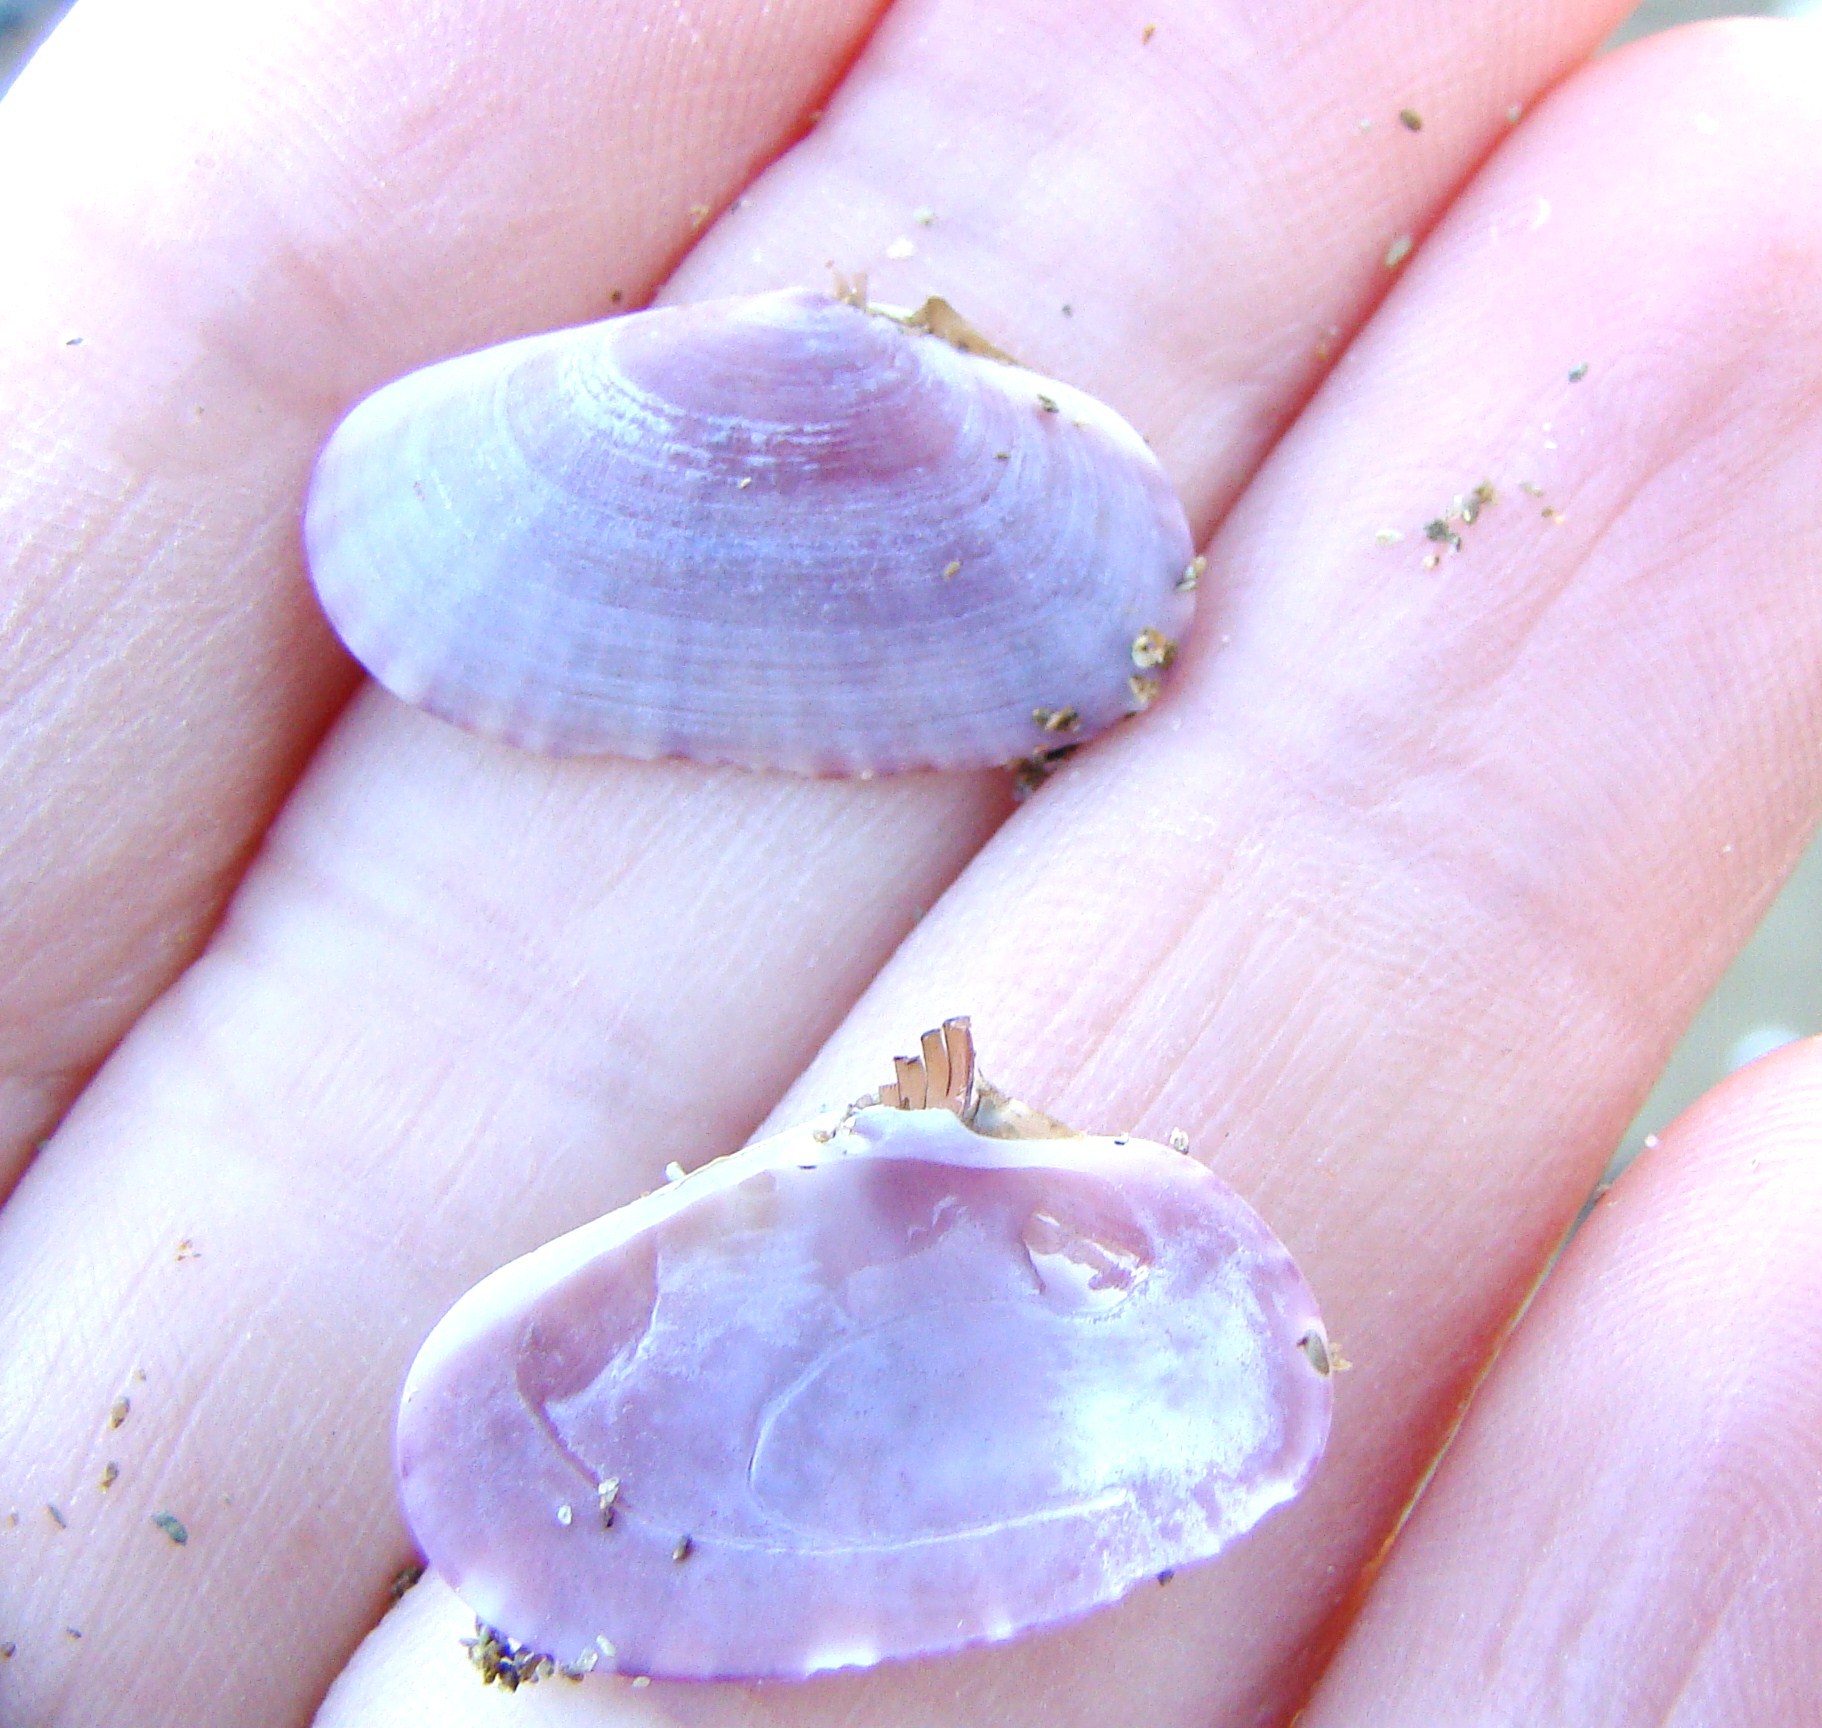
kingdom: Animalia
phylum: Mollusca
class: Bivalvia
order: Cardiida
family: Psammobiidae
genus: Gari
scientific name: Gari stangeri
